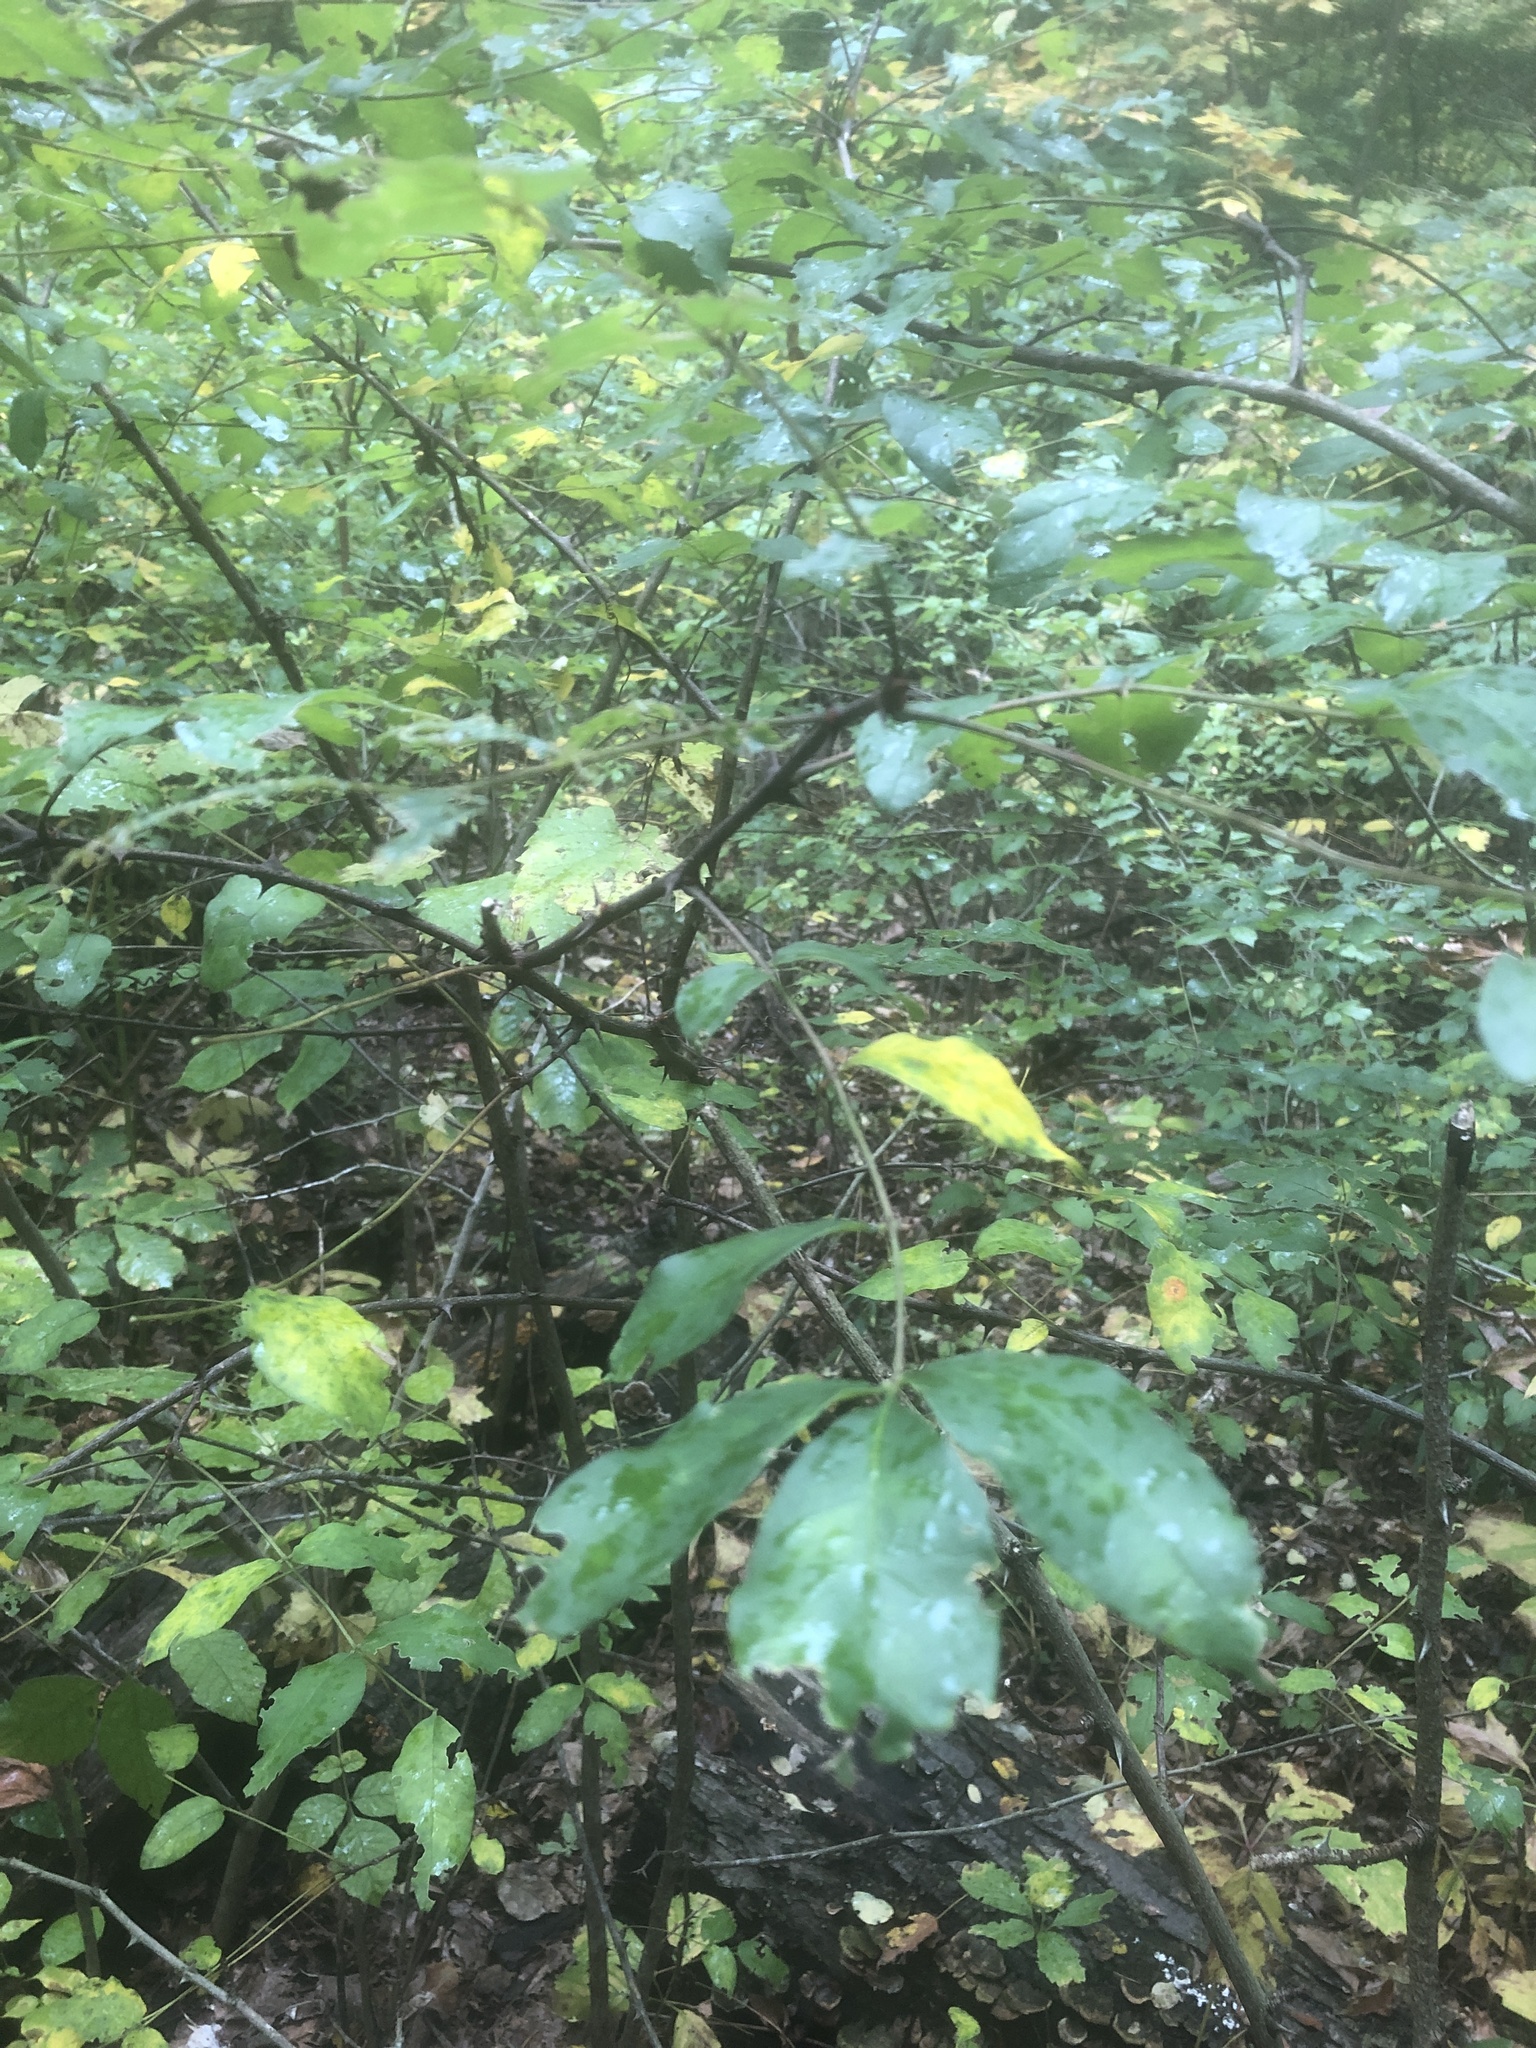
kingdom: Plantae
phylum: Tracheophyta
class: Magnoliopsida
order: Sapindales
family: Rutaceae
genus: Zanthoxylum
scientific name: Zanthoxylum americanum
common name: Northern prickly-ash
